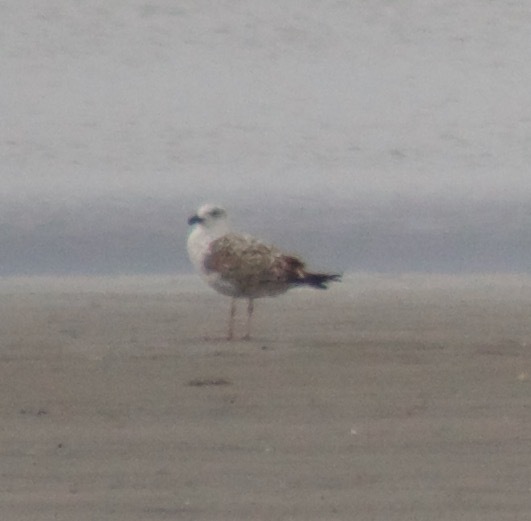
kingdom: Animalia
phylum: Chordata
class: Aves
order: Charadriiformes
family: Laridae
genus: Larus
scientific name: Larus marinus
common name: Great black-backed gull
